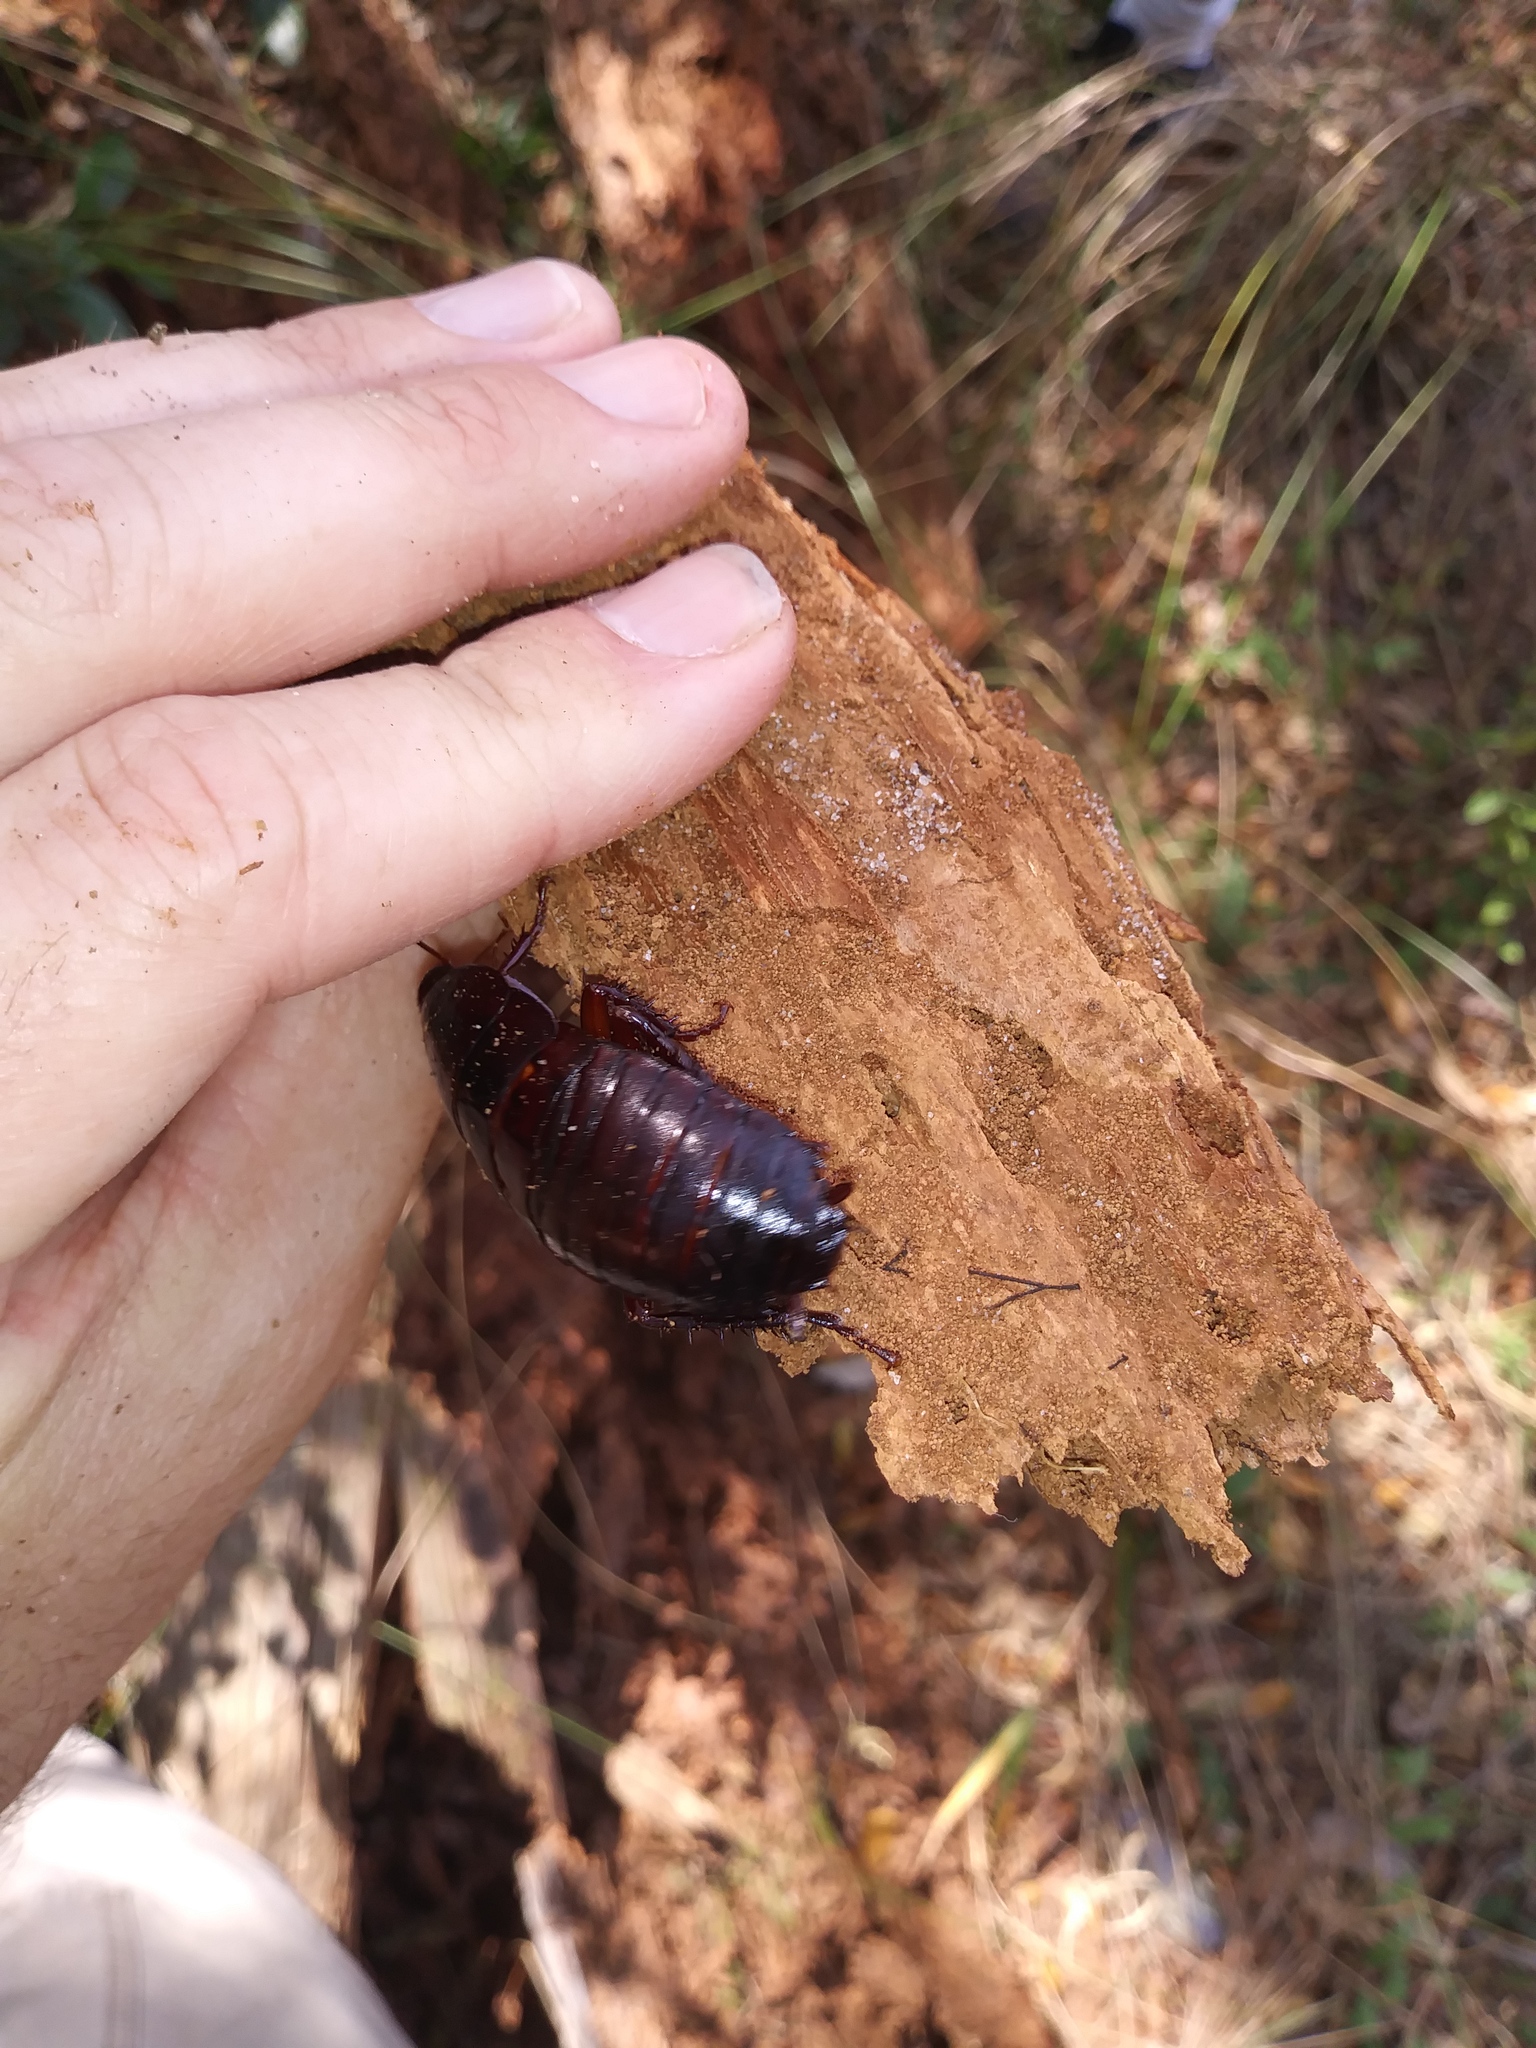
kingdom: Animalia
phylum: Arthropoda
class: Insecta
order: Blattodea
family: Blattidae
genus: Eurycotis
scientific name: Eurycotis floridana
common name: Florida cockroach
